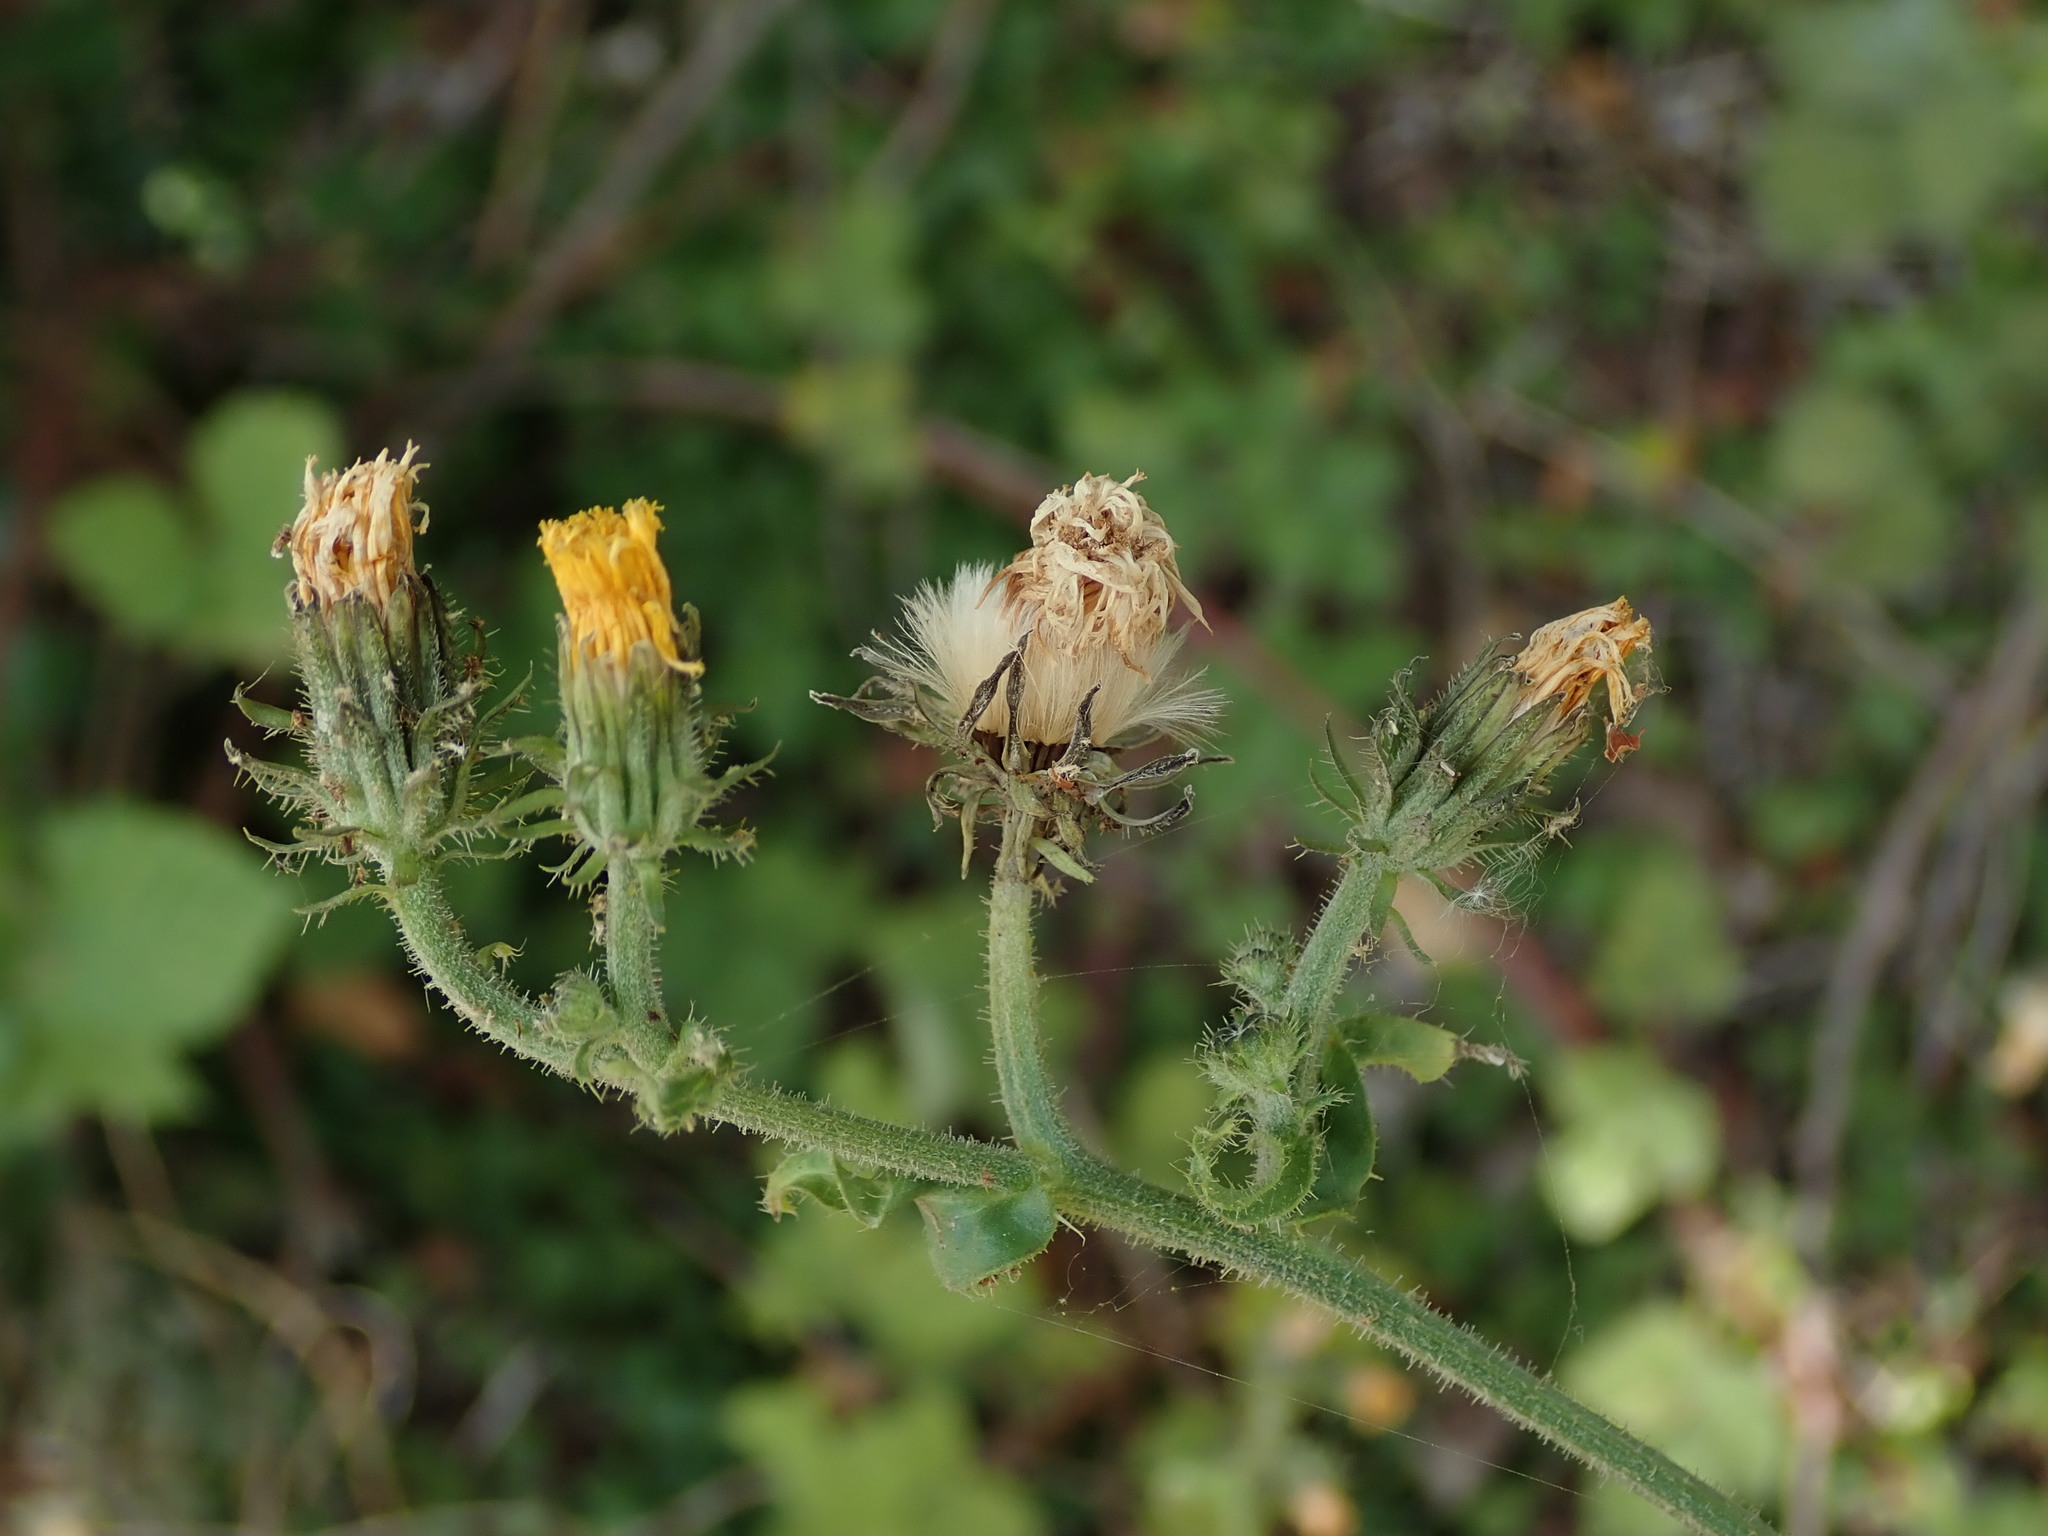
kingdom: Plantae
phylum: Tracheophyta
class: Magnoliopsida
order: Asterales
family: Asteraceae
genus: Picris
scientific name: Picris hieracioides
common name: Hawkweed oxtongue
